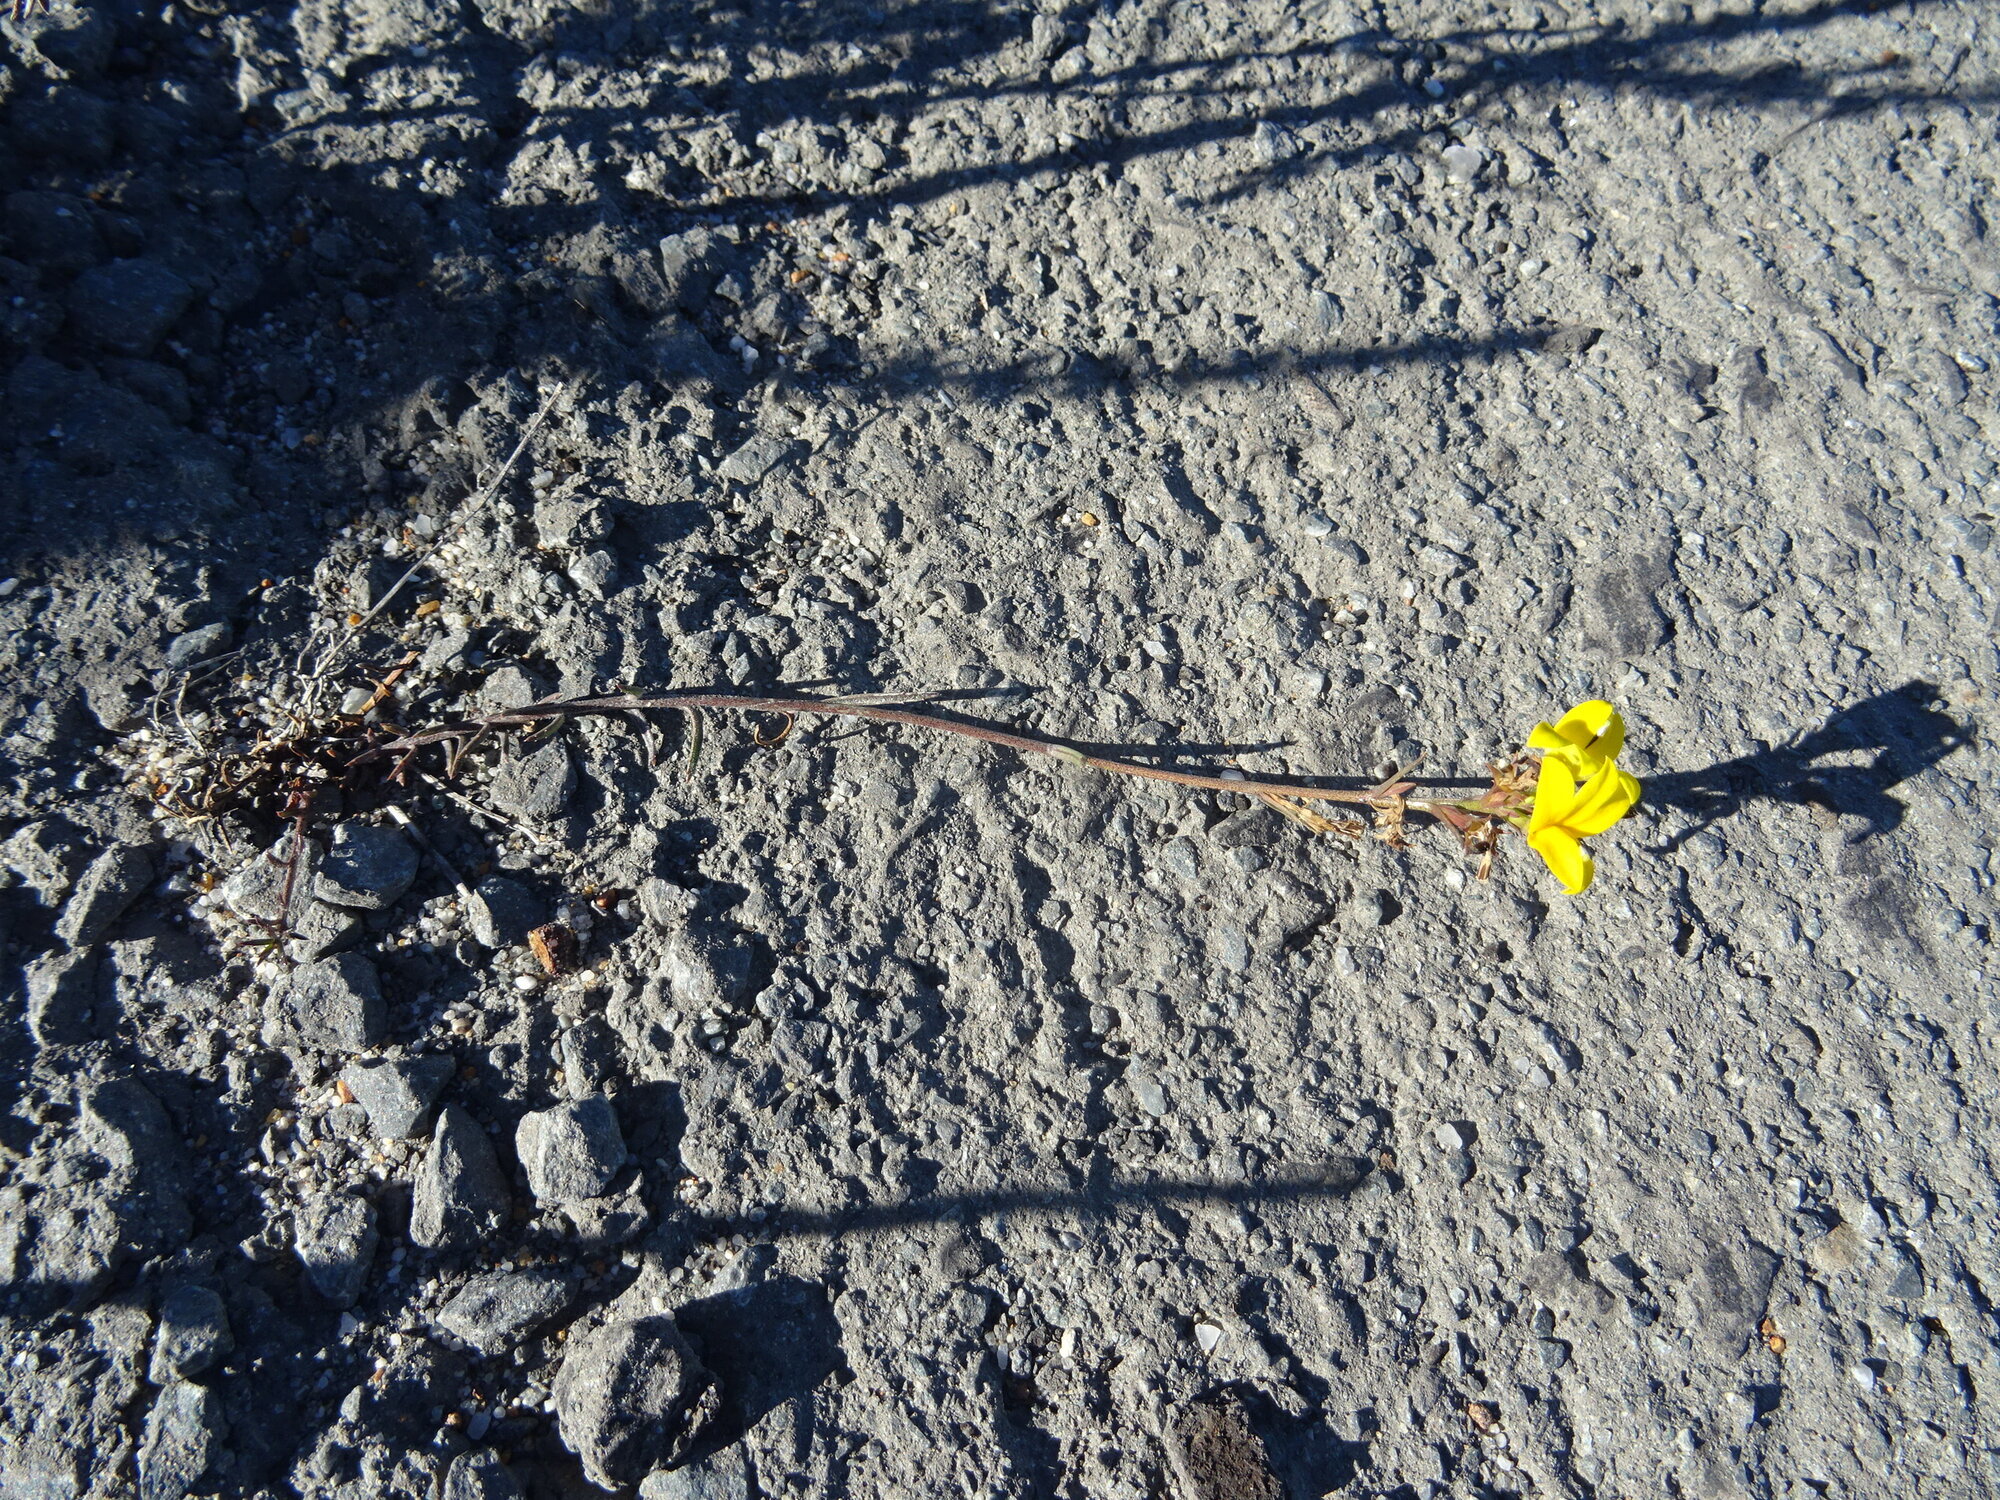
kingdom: Plantae
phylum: Tracheophyta
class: Magnoliopsida
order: Asterales
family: Campanulaceae
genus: Monopsis
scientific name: Monopsis lutea
